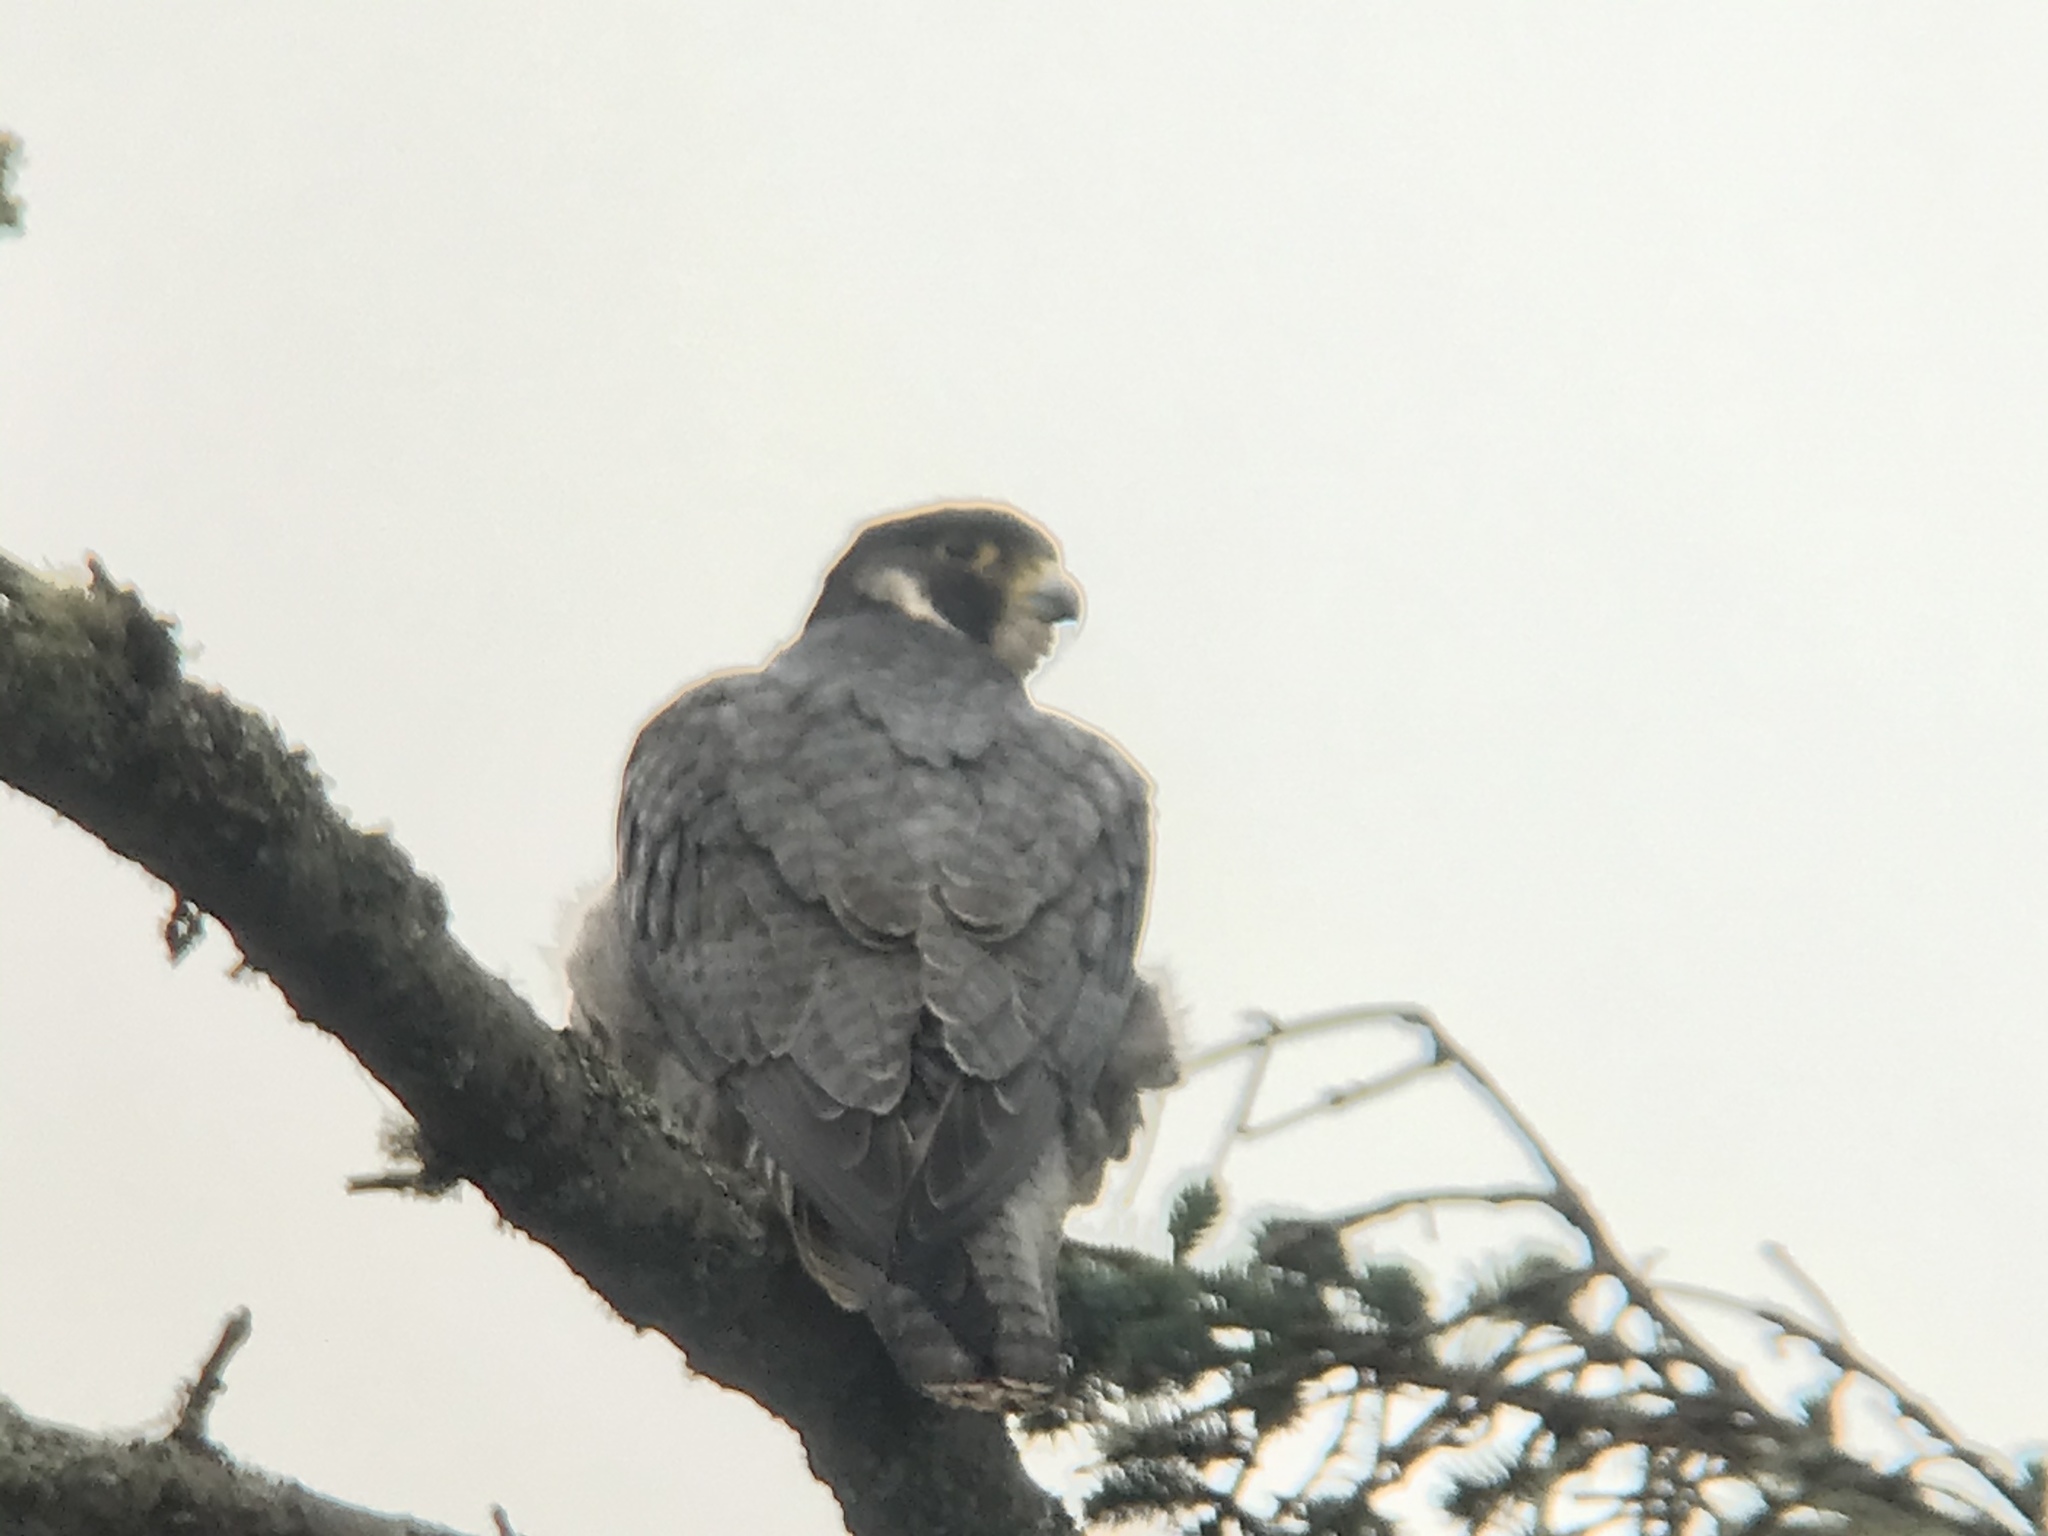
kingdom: Animalia
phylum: Chordata
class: Aves
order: Falconiformes
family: Falconidae
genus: Falco
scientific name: Falco peregrinus
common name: Peregrine falcon
